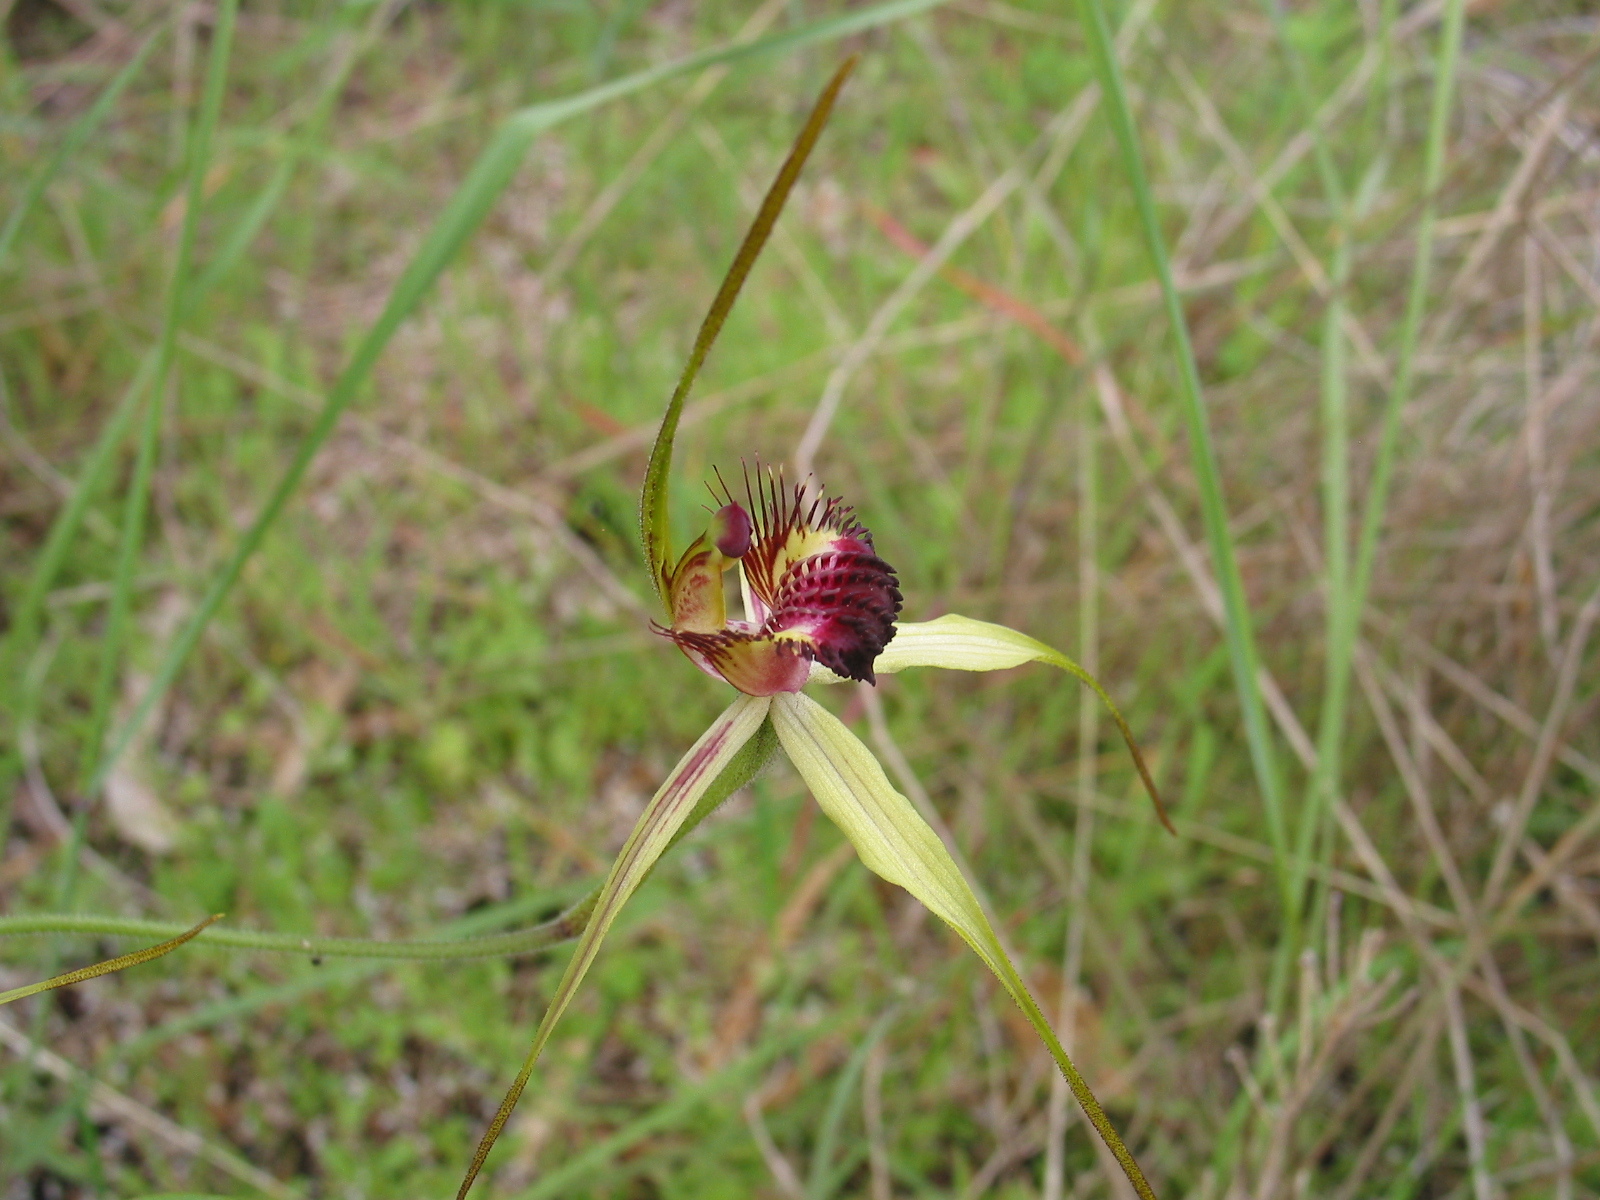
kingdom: Plantae
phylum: Tracheophyta
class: Liliopsida
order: Asparagales
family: Orchidaceae
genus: Caladenia
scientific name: Caladenia georgei
